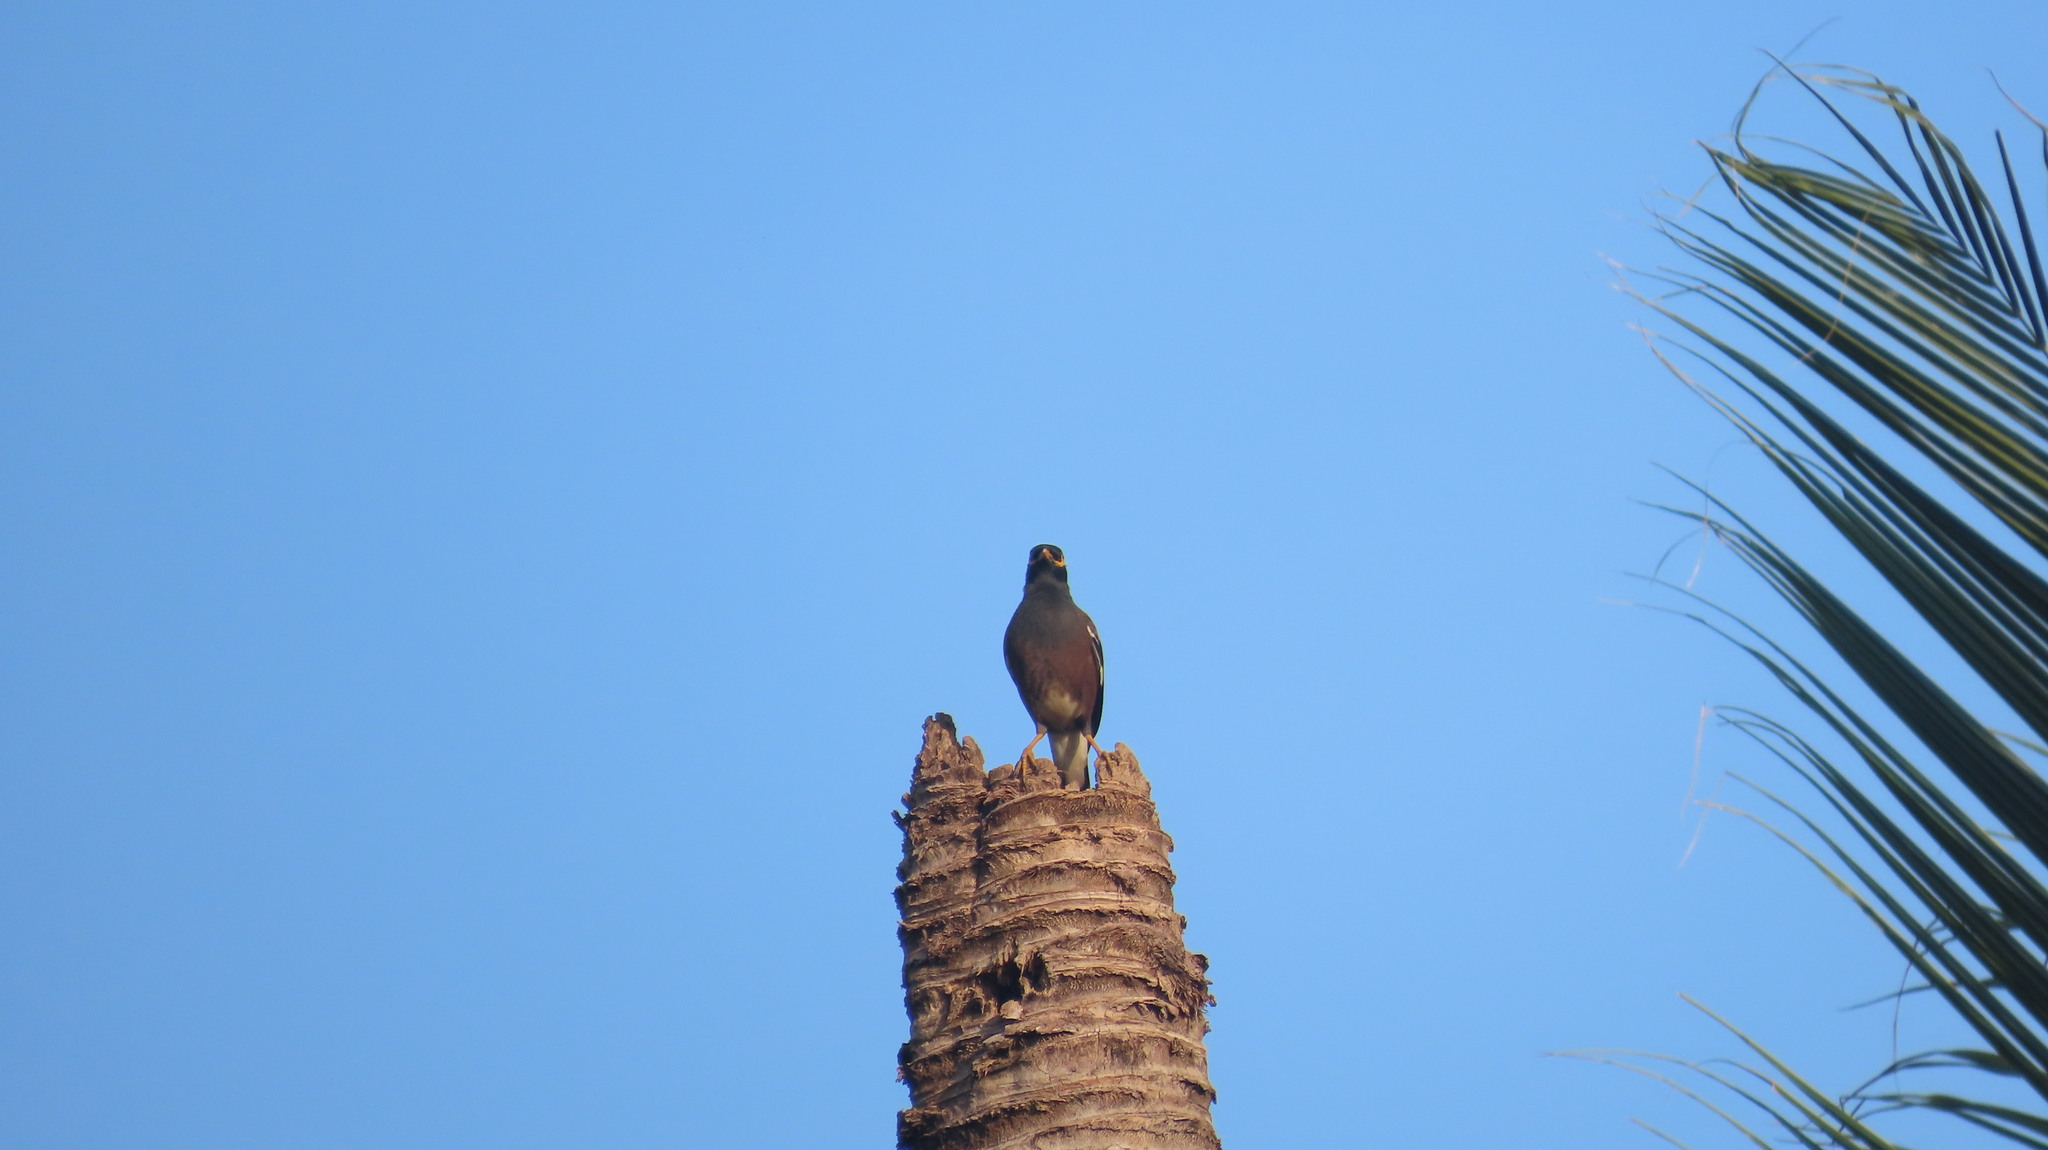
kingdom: Animalia
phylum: Chordata
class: Aves
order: Passeriformes
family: Sturnidae
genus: Acridotheres
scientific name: Acridotheres tristis
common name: Common myna
